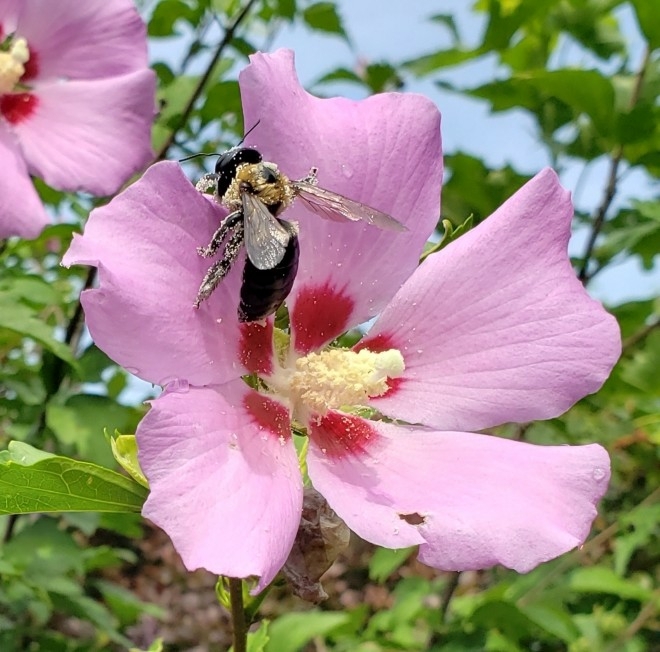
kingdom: Animalia
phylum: Arthropoda
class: Insecta
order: Hymenoptera
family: Apidae
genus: Xylocopa
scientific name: Xylocopa virginica
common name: Carpenter bee
